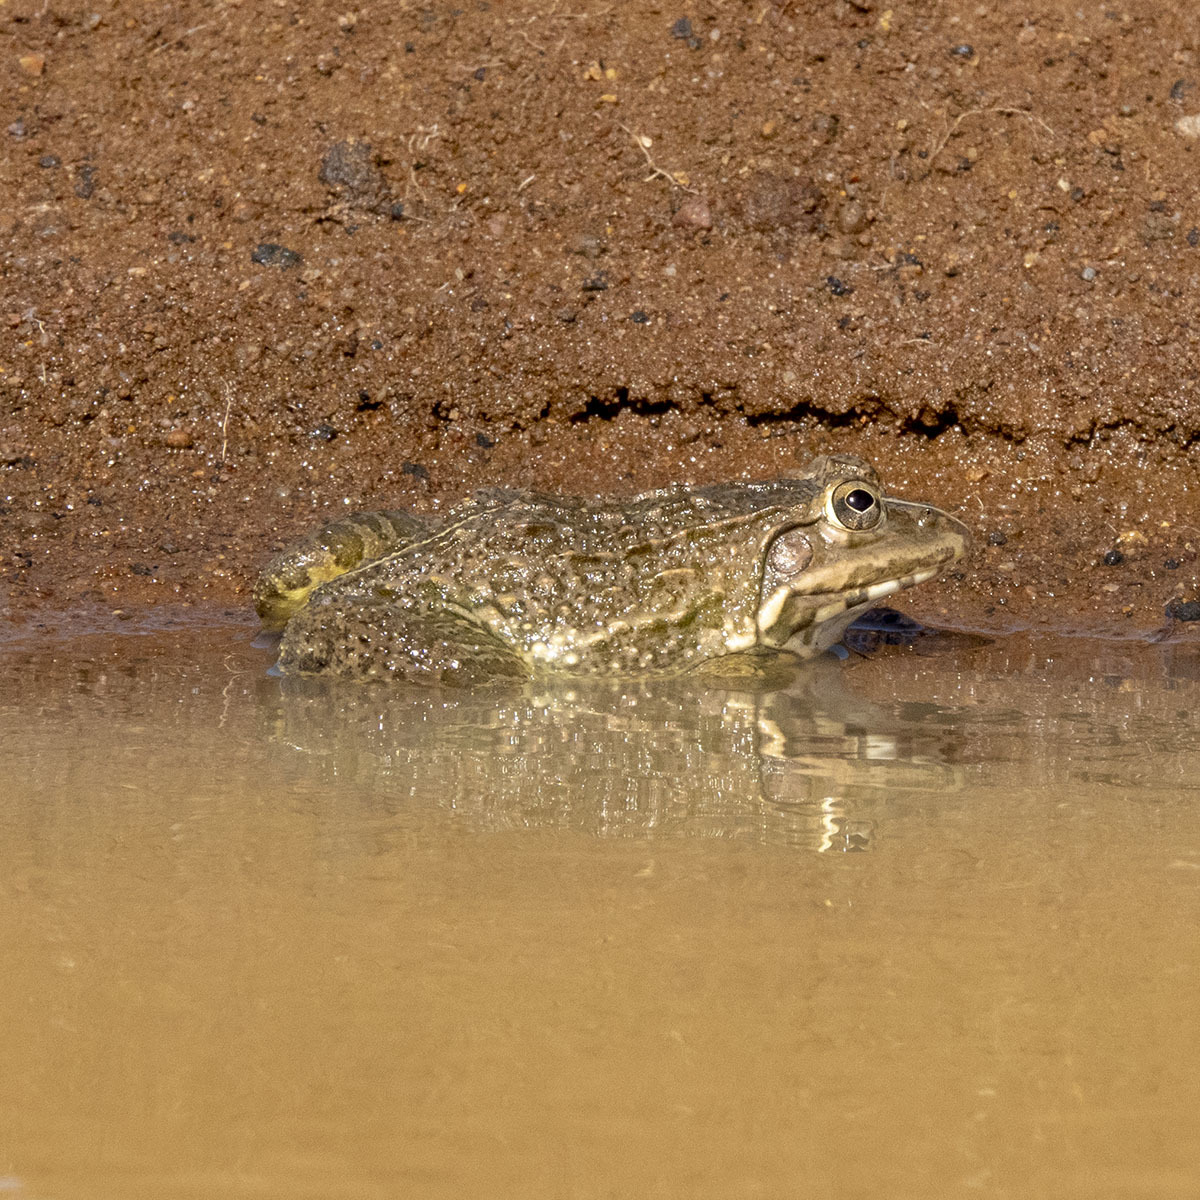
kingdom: Animalia
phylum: Chordata
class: Amphibia
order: Anura
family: Dicroglossidae
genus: Hoplobatrachus
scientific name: Hoplobatrachus tigerinus
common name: Indian bullfrog
